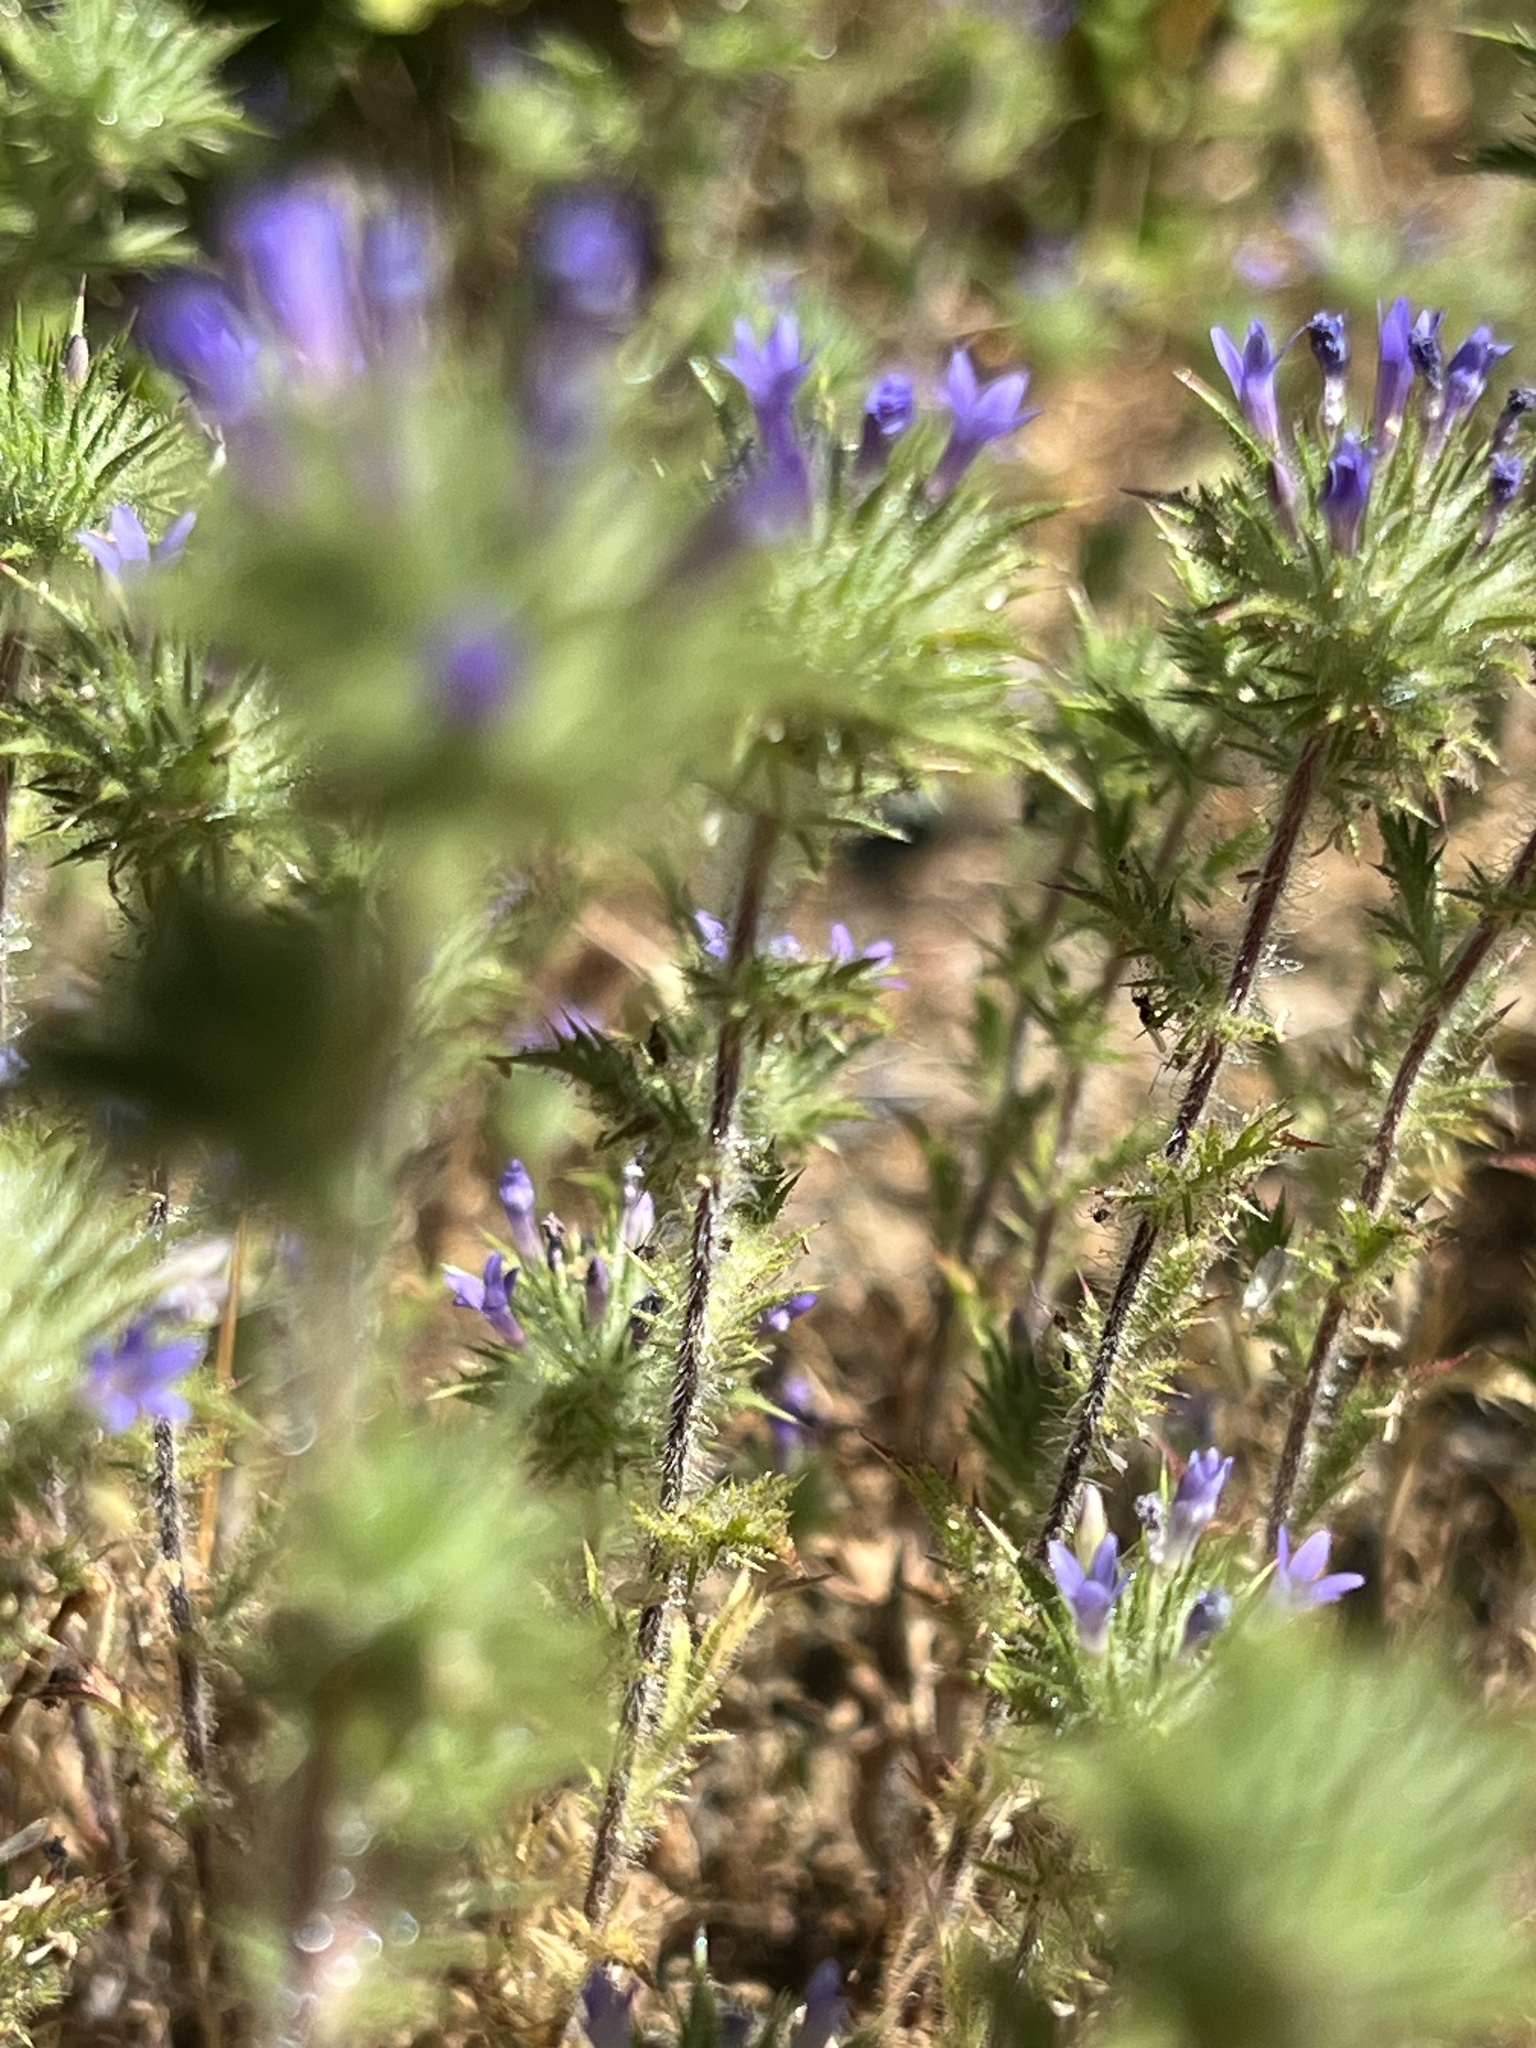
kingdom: Plantae
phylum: Tracheophyta
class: Magnoliopsida
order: Ericales
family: Polemoniaceae
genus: Navarretia
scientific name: Navarretia squarrosa
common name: Skunkweed
